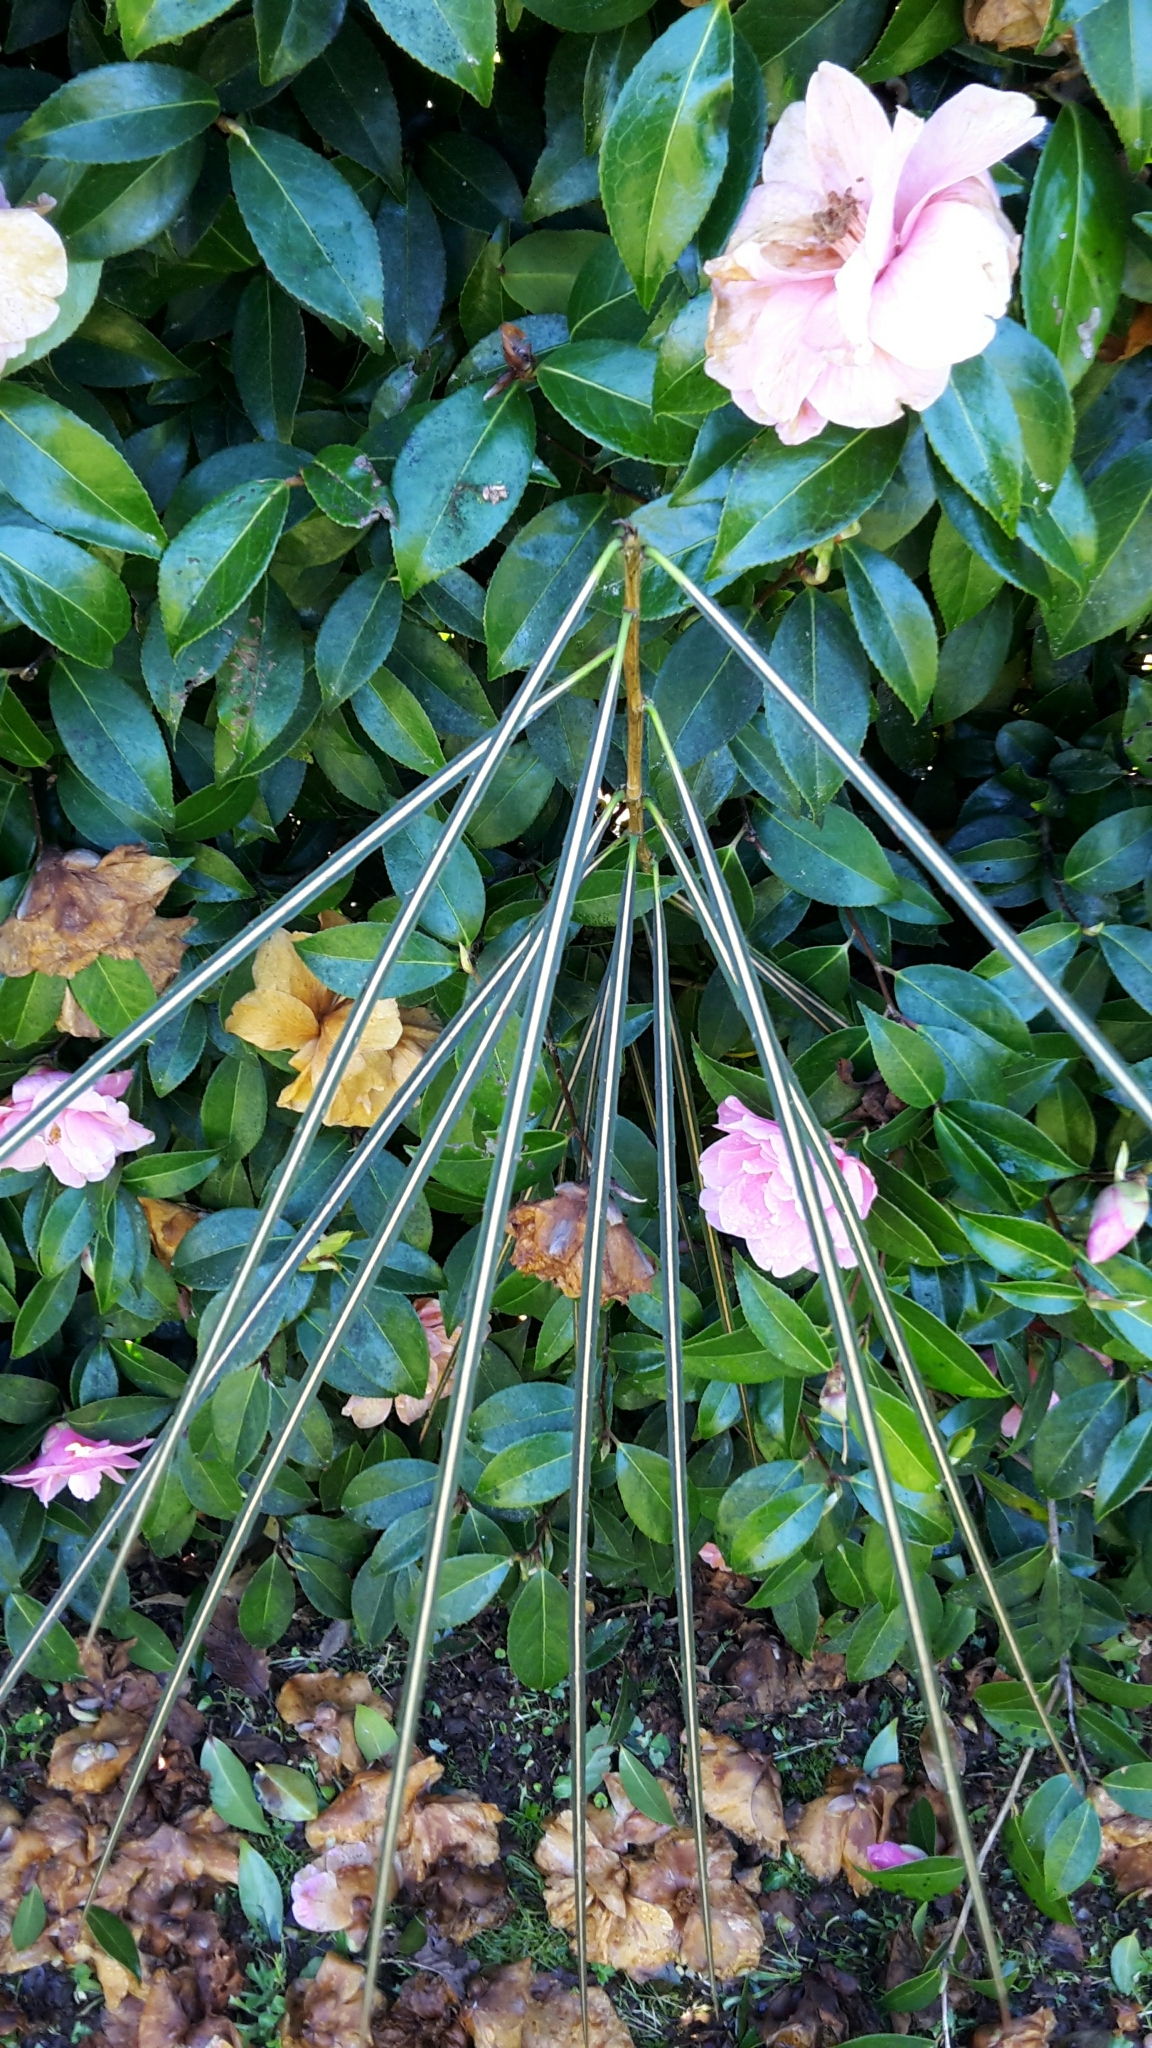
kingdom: Plantae
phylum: Tracheophyta
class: Magnoliopsida
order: Apiales
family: Araliaceae
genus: Pseudopanax
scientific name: Pseudopanax crassifolius
